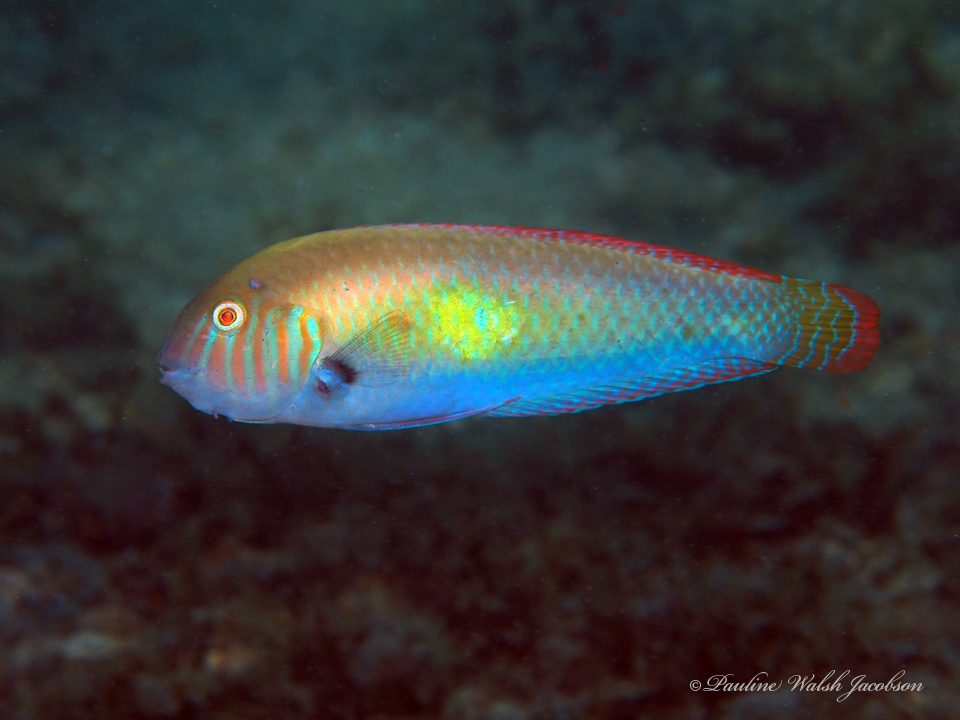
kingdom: Animalia
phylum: Chordata
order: Perciformes
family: Labridae
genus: Xyrichtys
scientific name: Xyrichtys splendens
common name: Green razorfish
